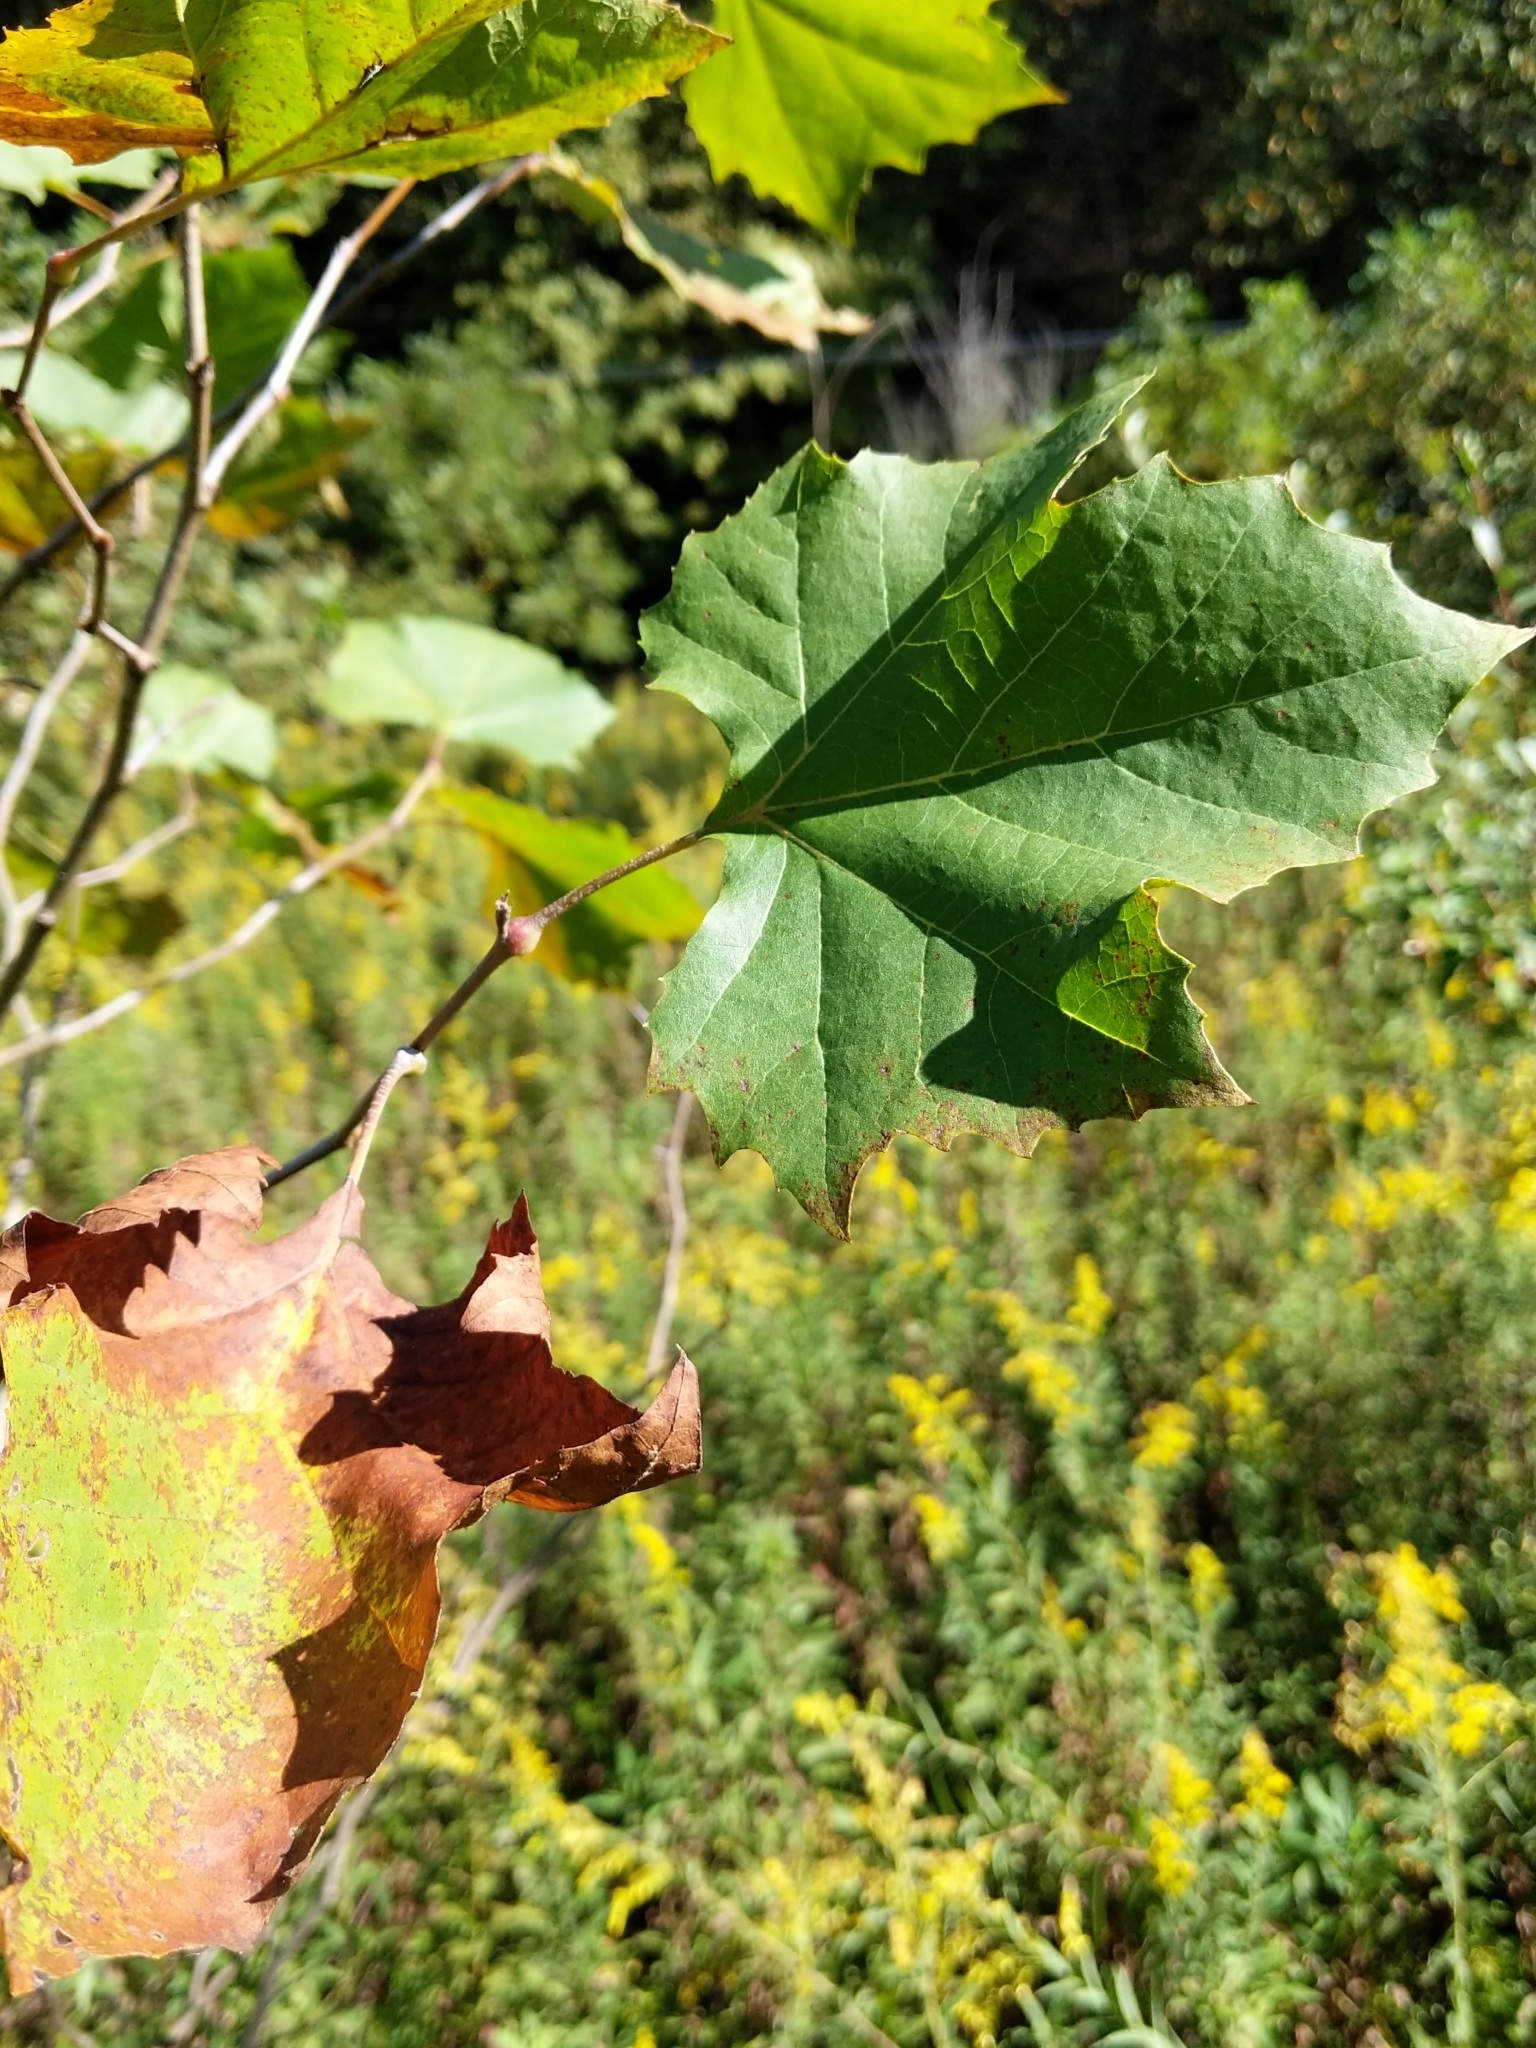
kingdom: Plantae
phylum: Tracheophyta
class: Magnoliopsida
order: Proteales
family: Platanaceae
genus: Platanus
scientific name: Platanus occidentalis
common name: American sycamore
